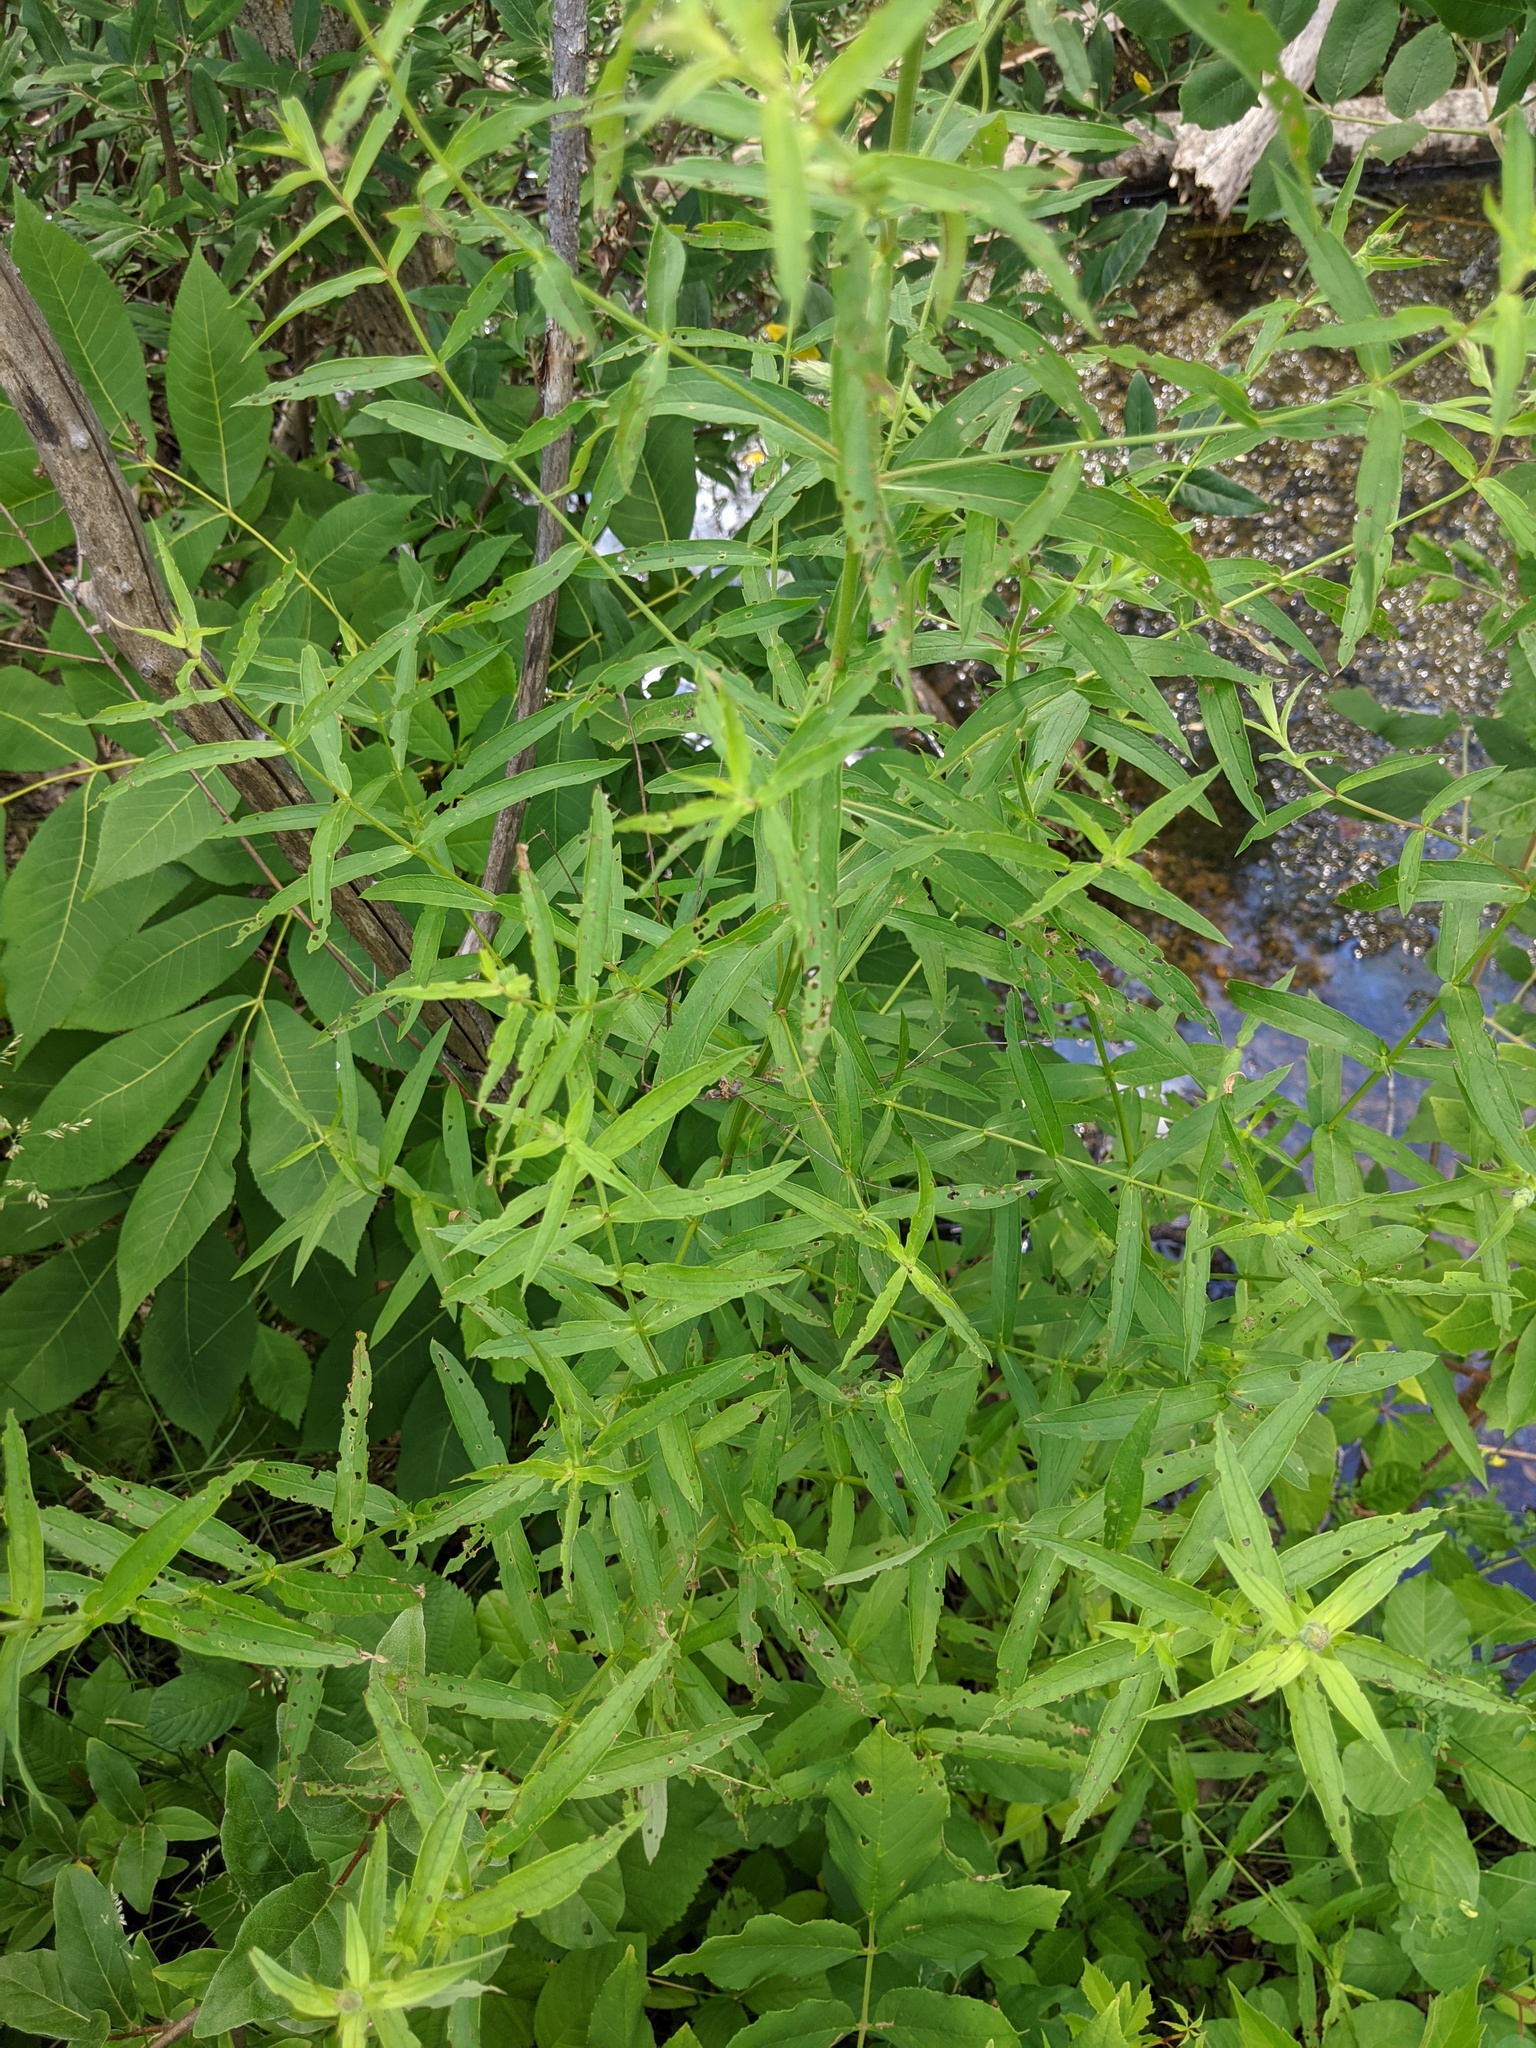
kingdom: Plantae
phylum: Tracheophyta
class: Magnoliopsida
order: Myrtales
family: Lythraceae
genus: Lythrum
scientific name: Lythrum salicaria
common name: Purple loosestrife
